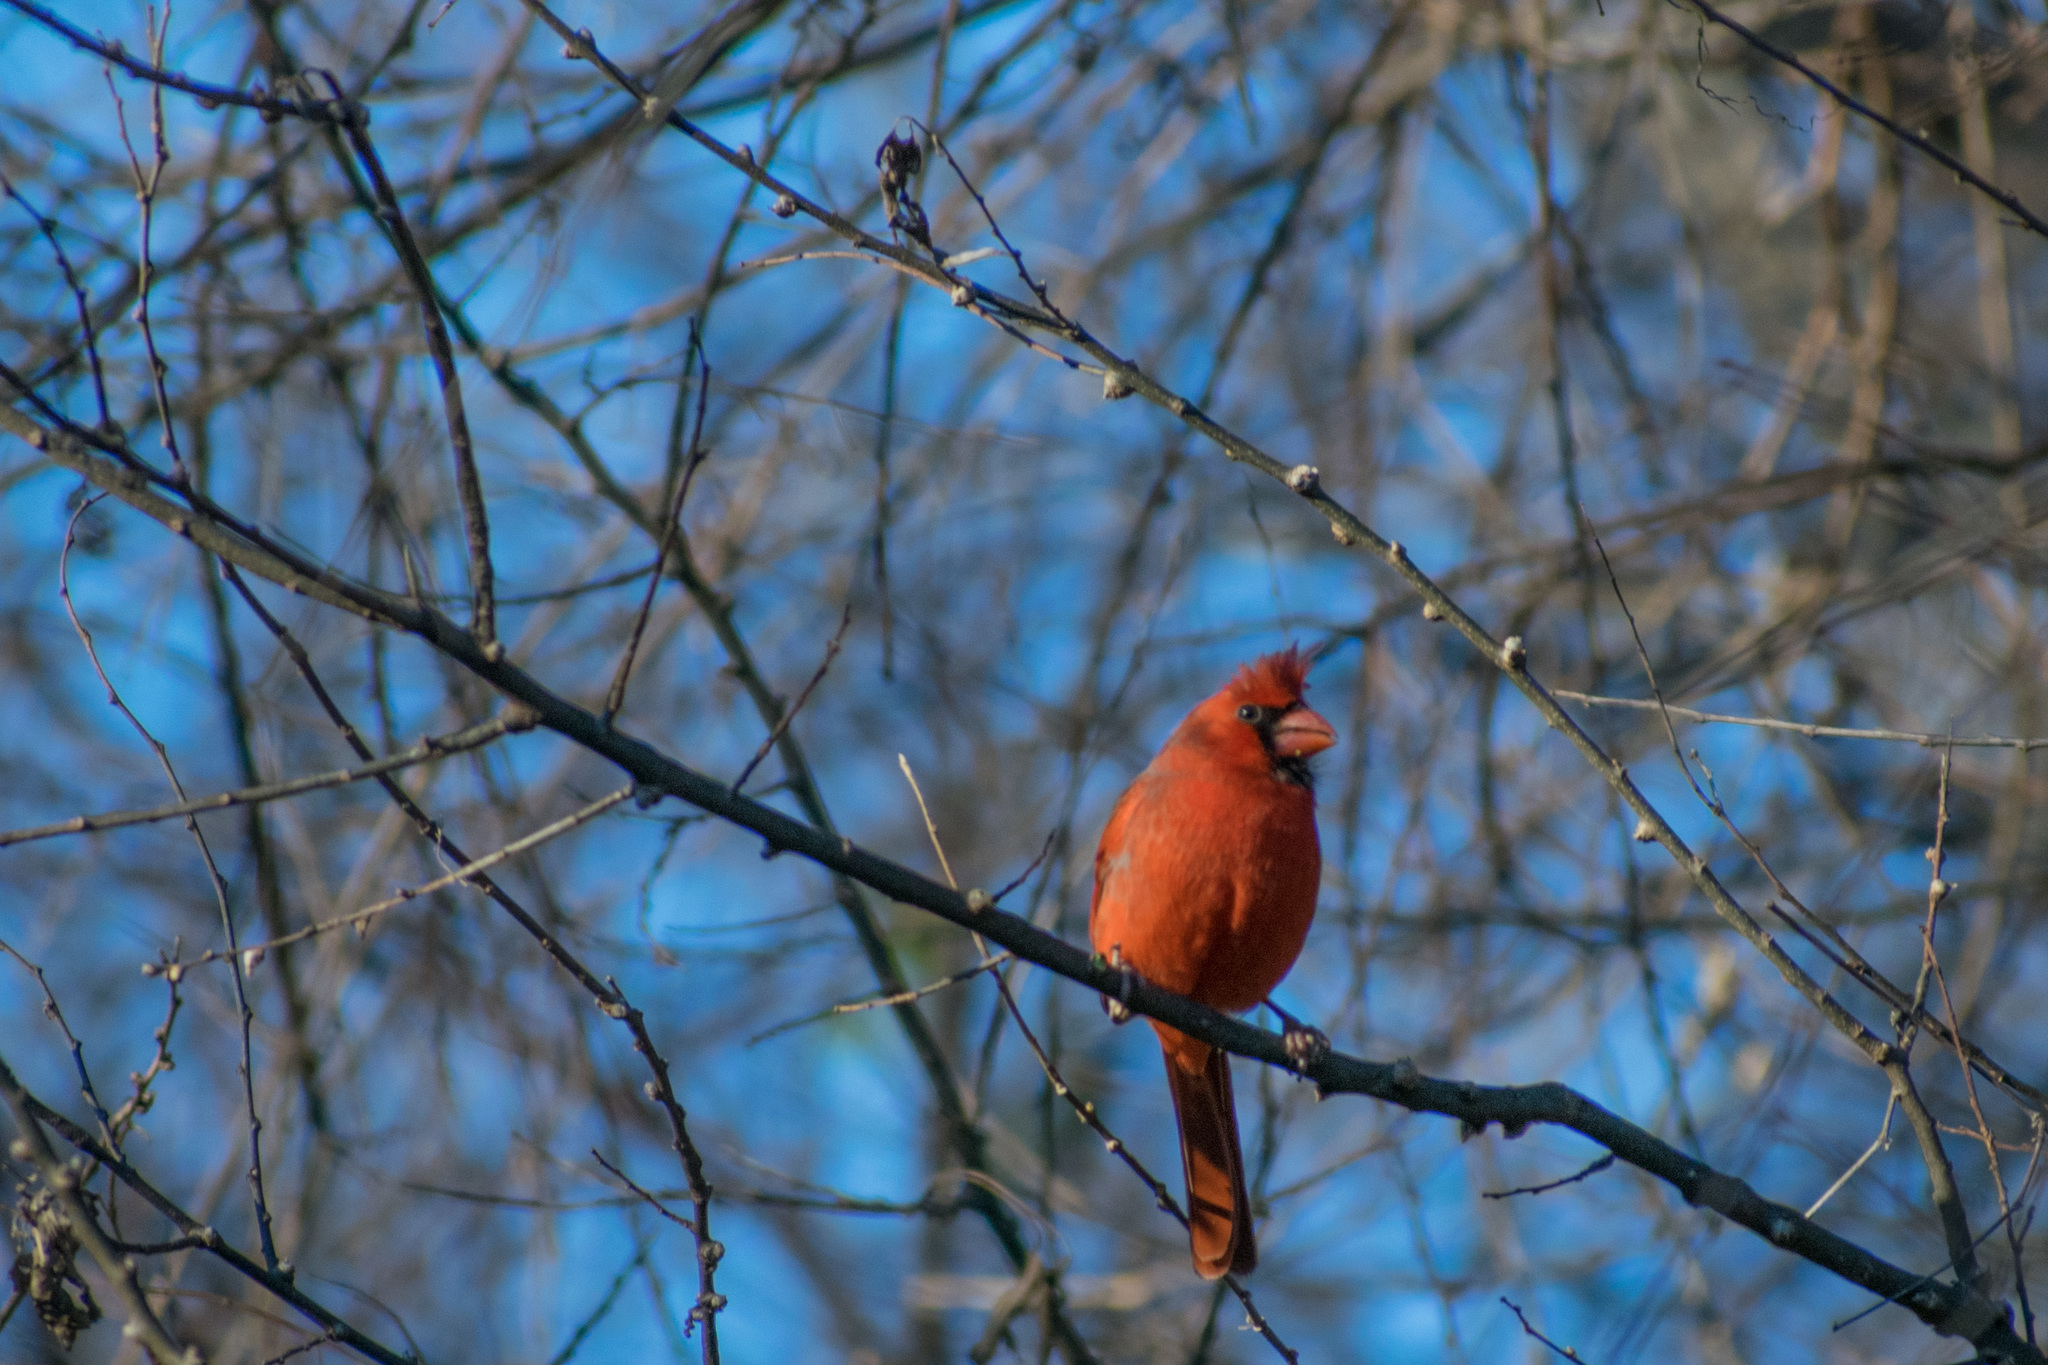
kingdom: Animalia
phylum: Chordata
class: Aves
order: Passeriformes
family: Cardinalidae
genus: Cardinalis
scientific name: Cardinalis cardinalis
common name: Northern cardinal
